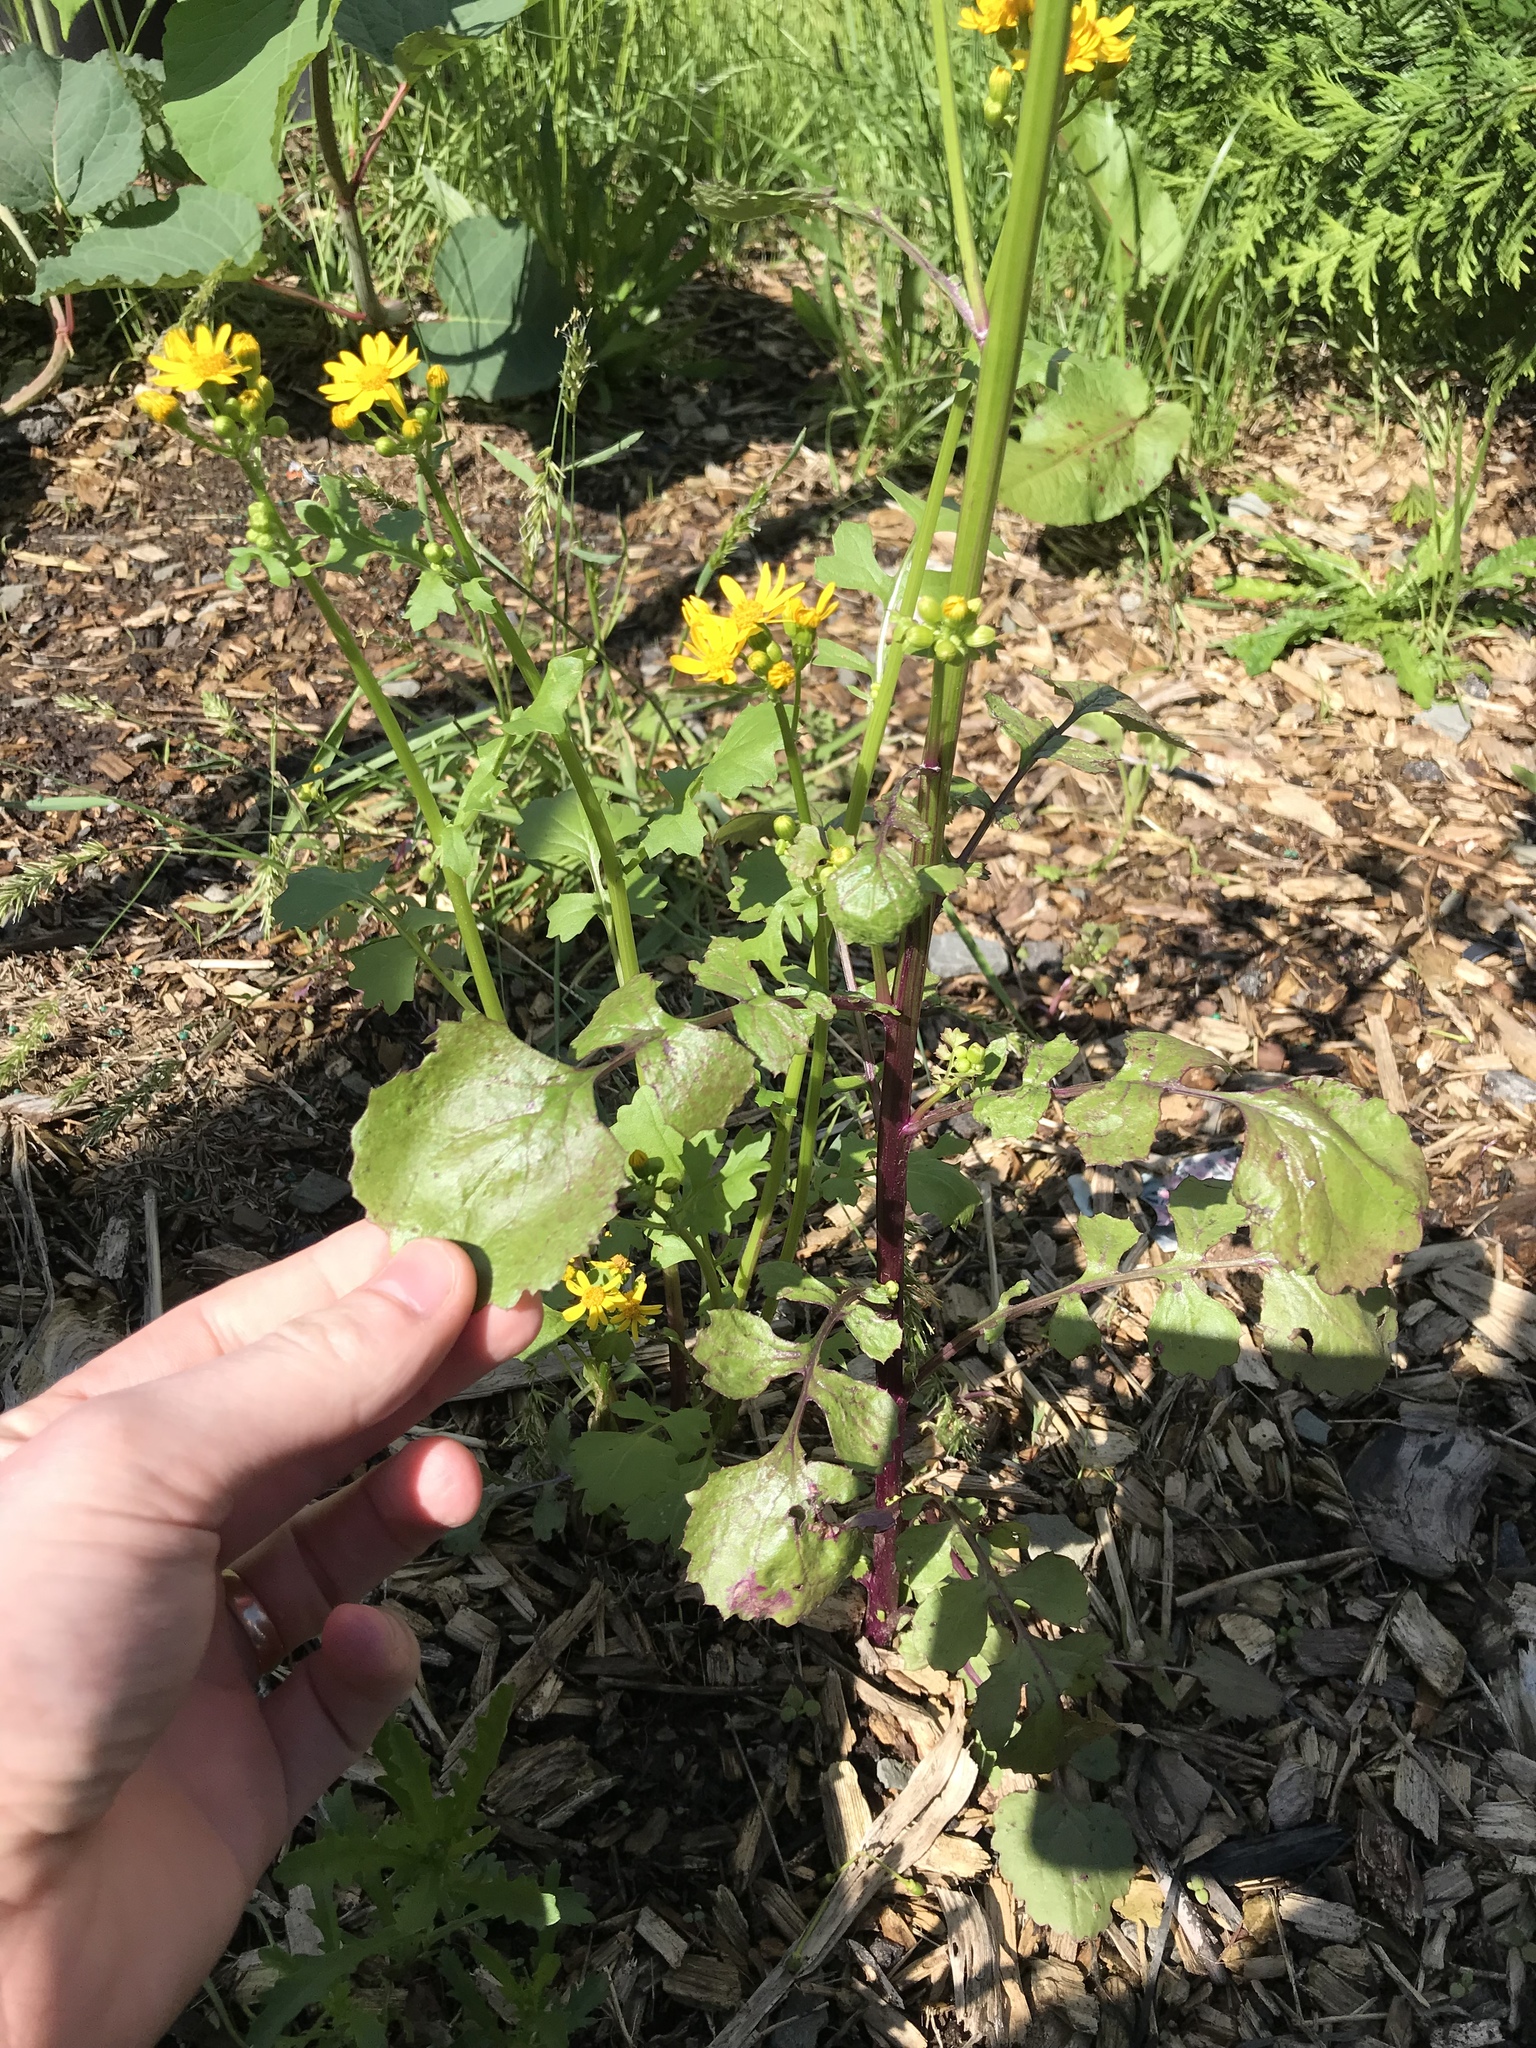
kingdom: Plantae
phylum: Tracheophyta
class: Magnoliopsida
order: Asterales
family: Asteraceae
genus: Packera
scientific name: Packera glabella
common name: Butterweed
